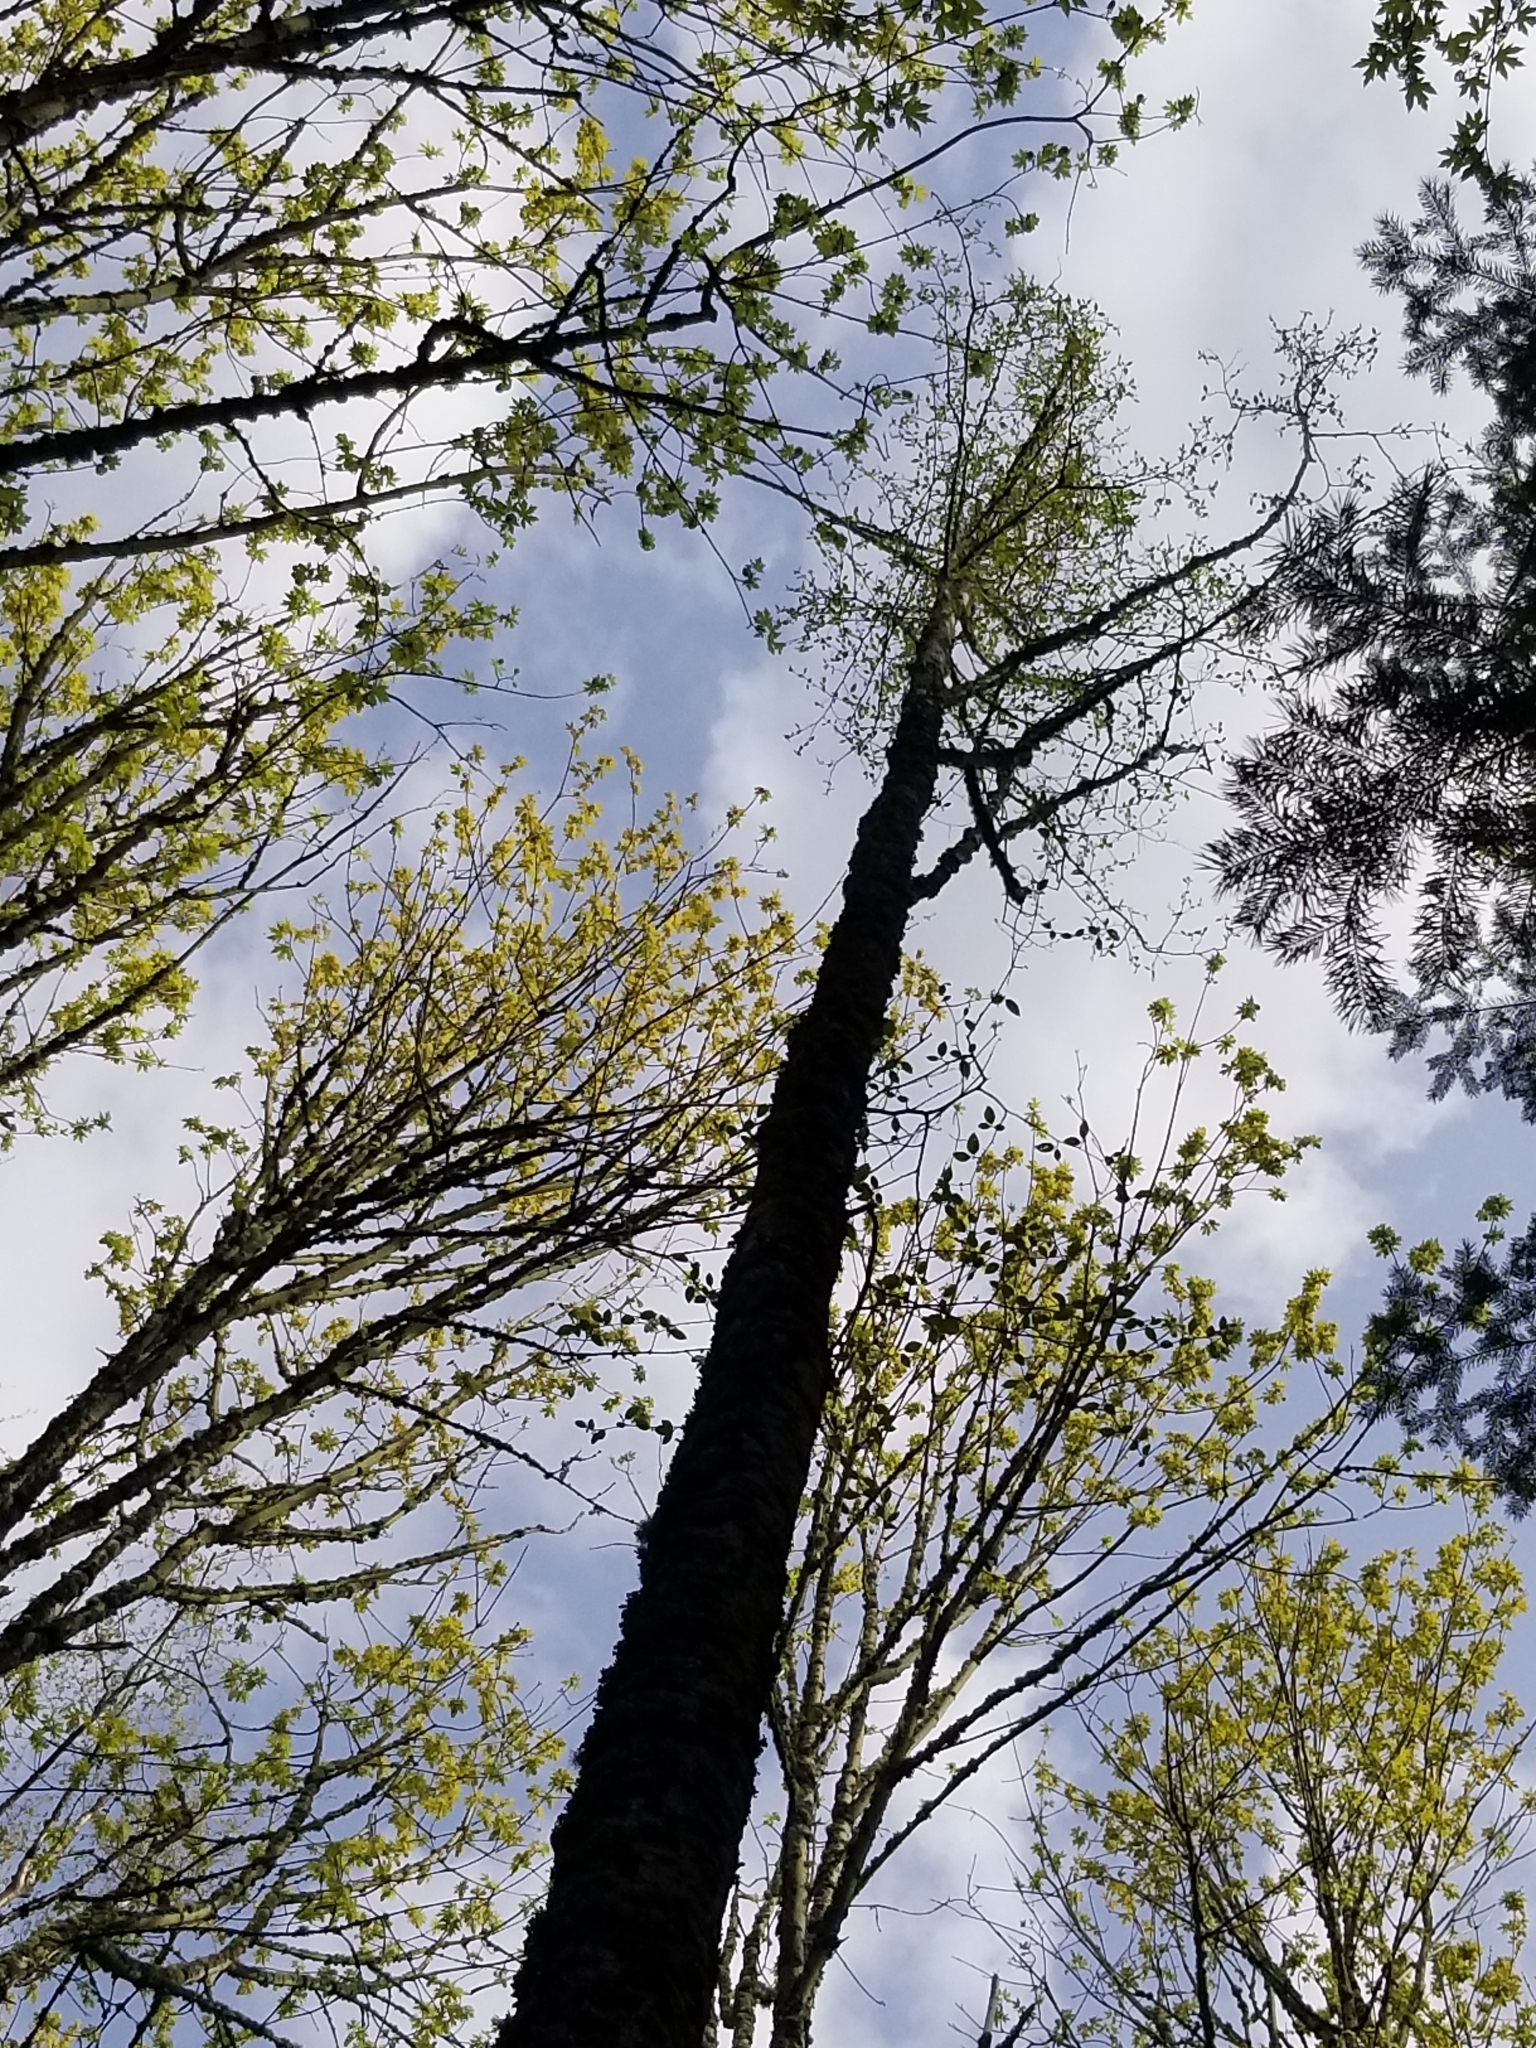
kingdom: Plantae
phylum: Tracheophyta
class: Magnoliopsida
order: Fagales
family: Betulaceae
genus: Alnus
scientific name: Alnus rubra
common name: Red alder
